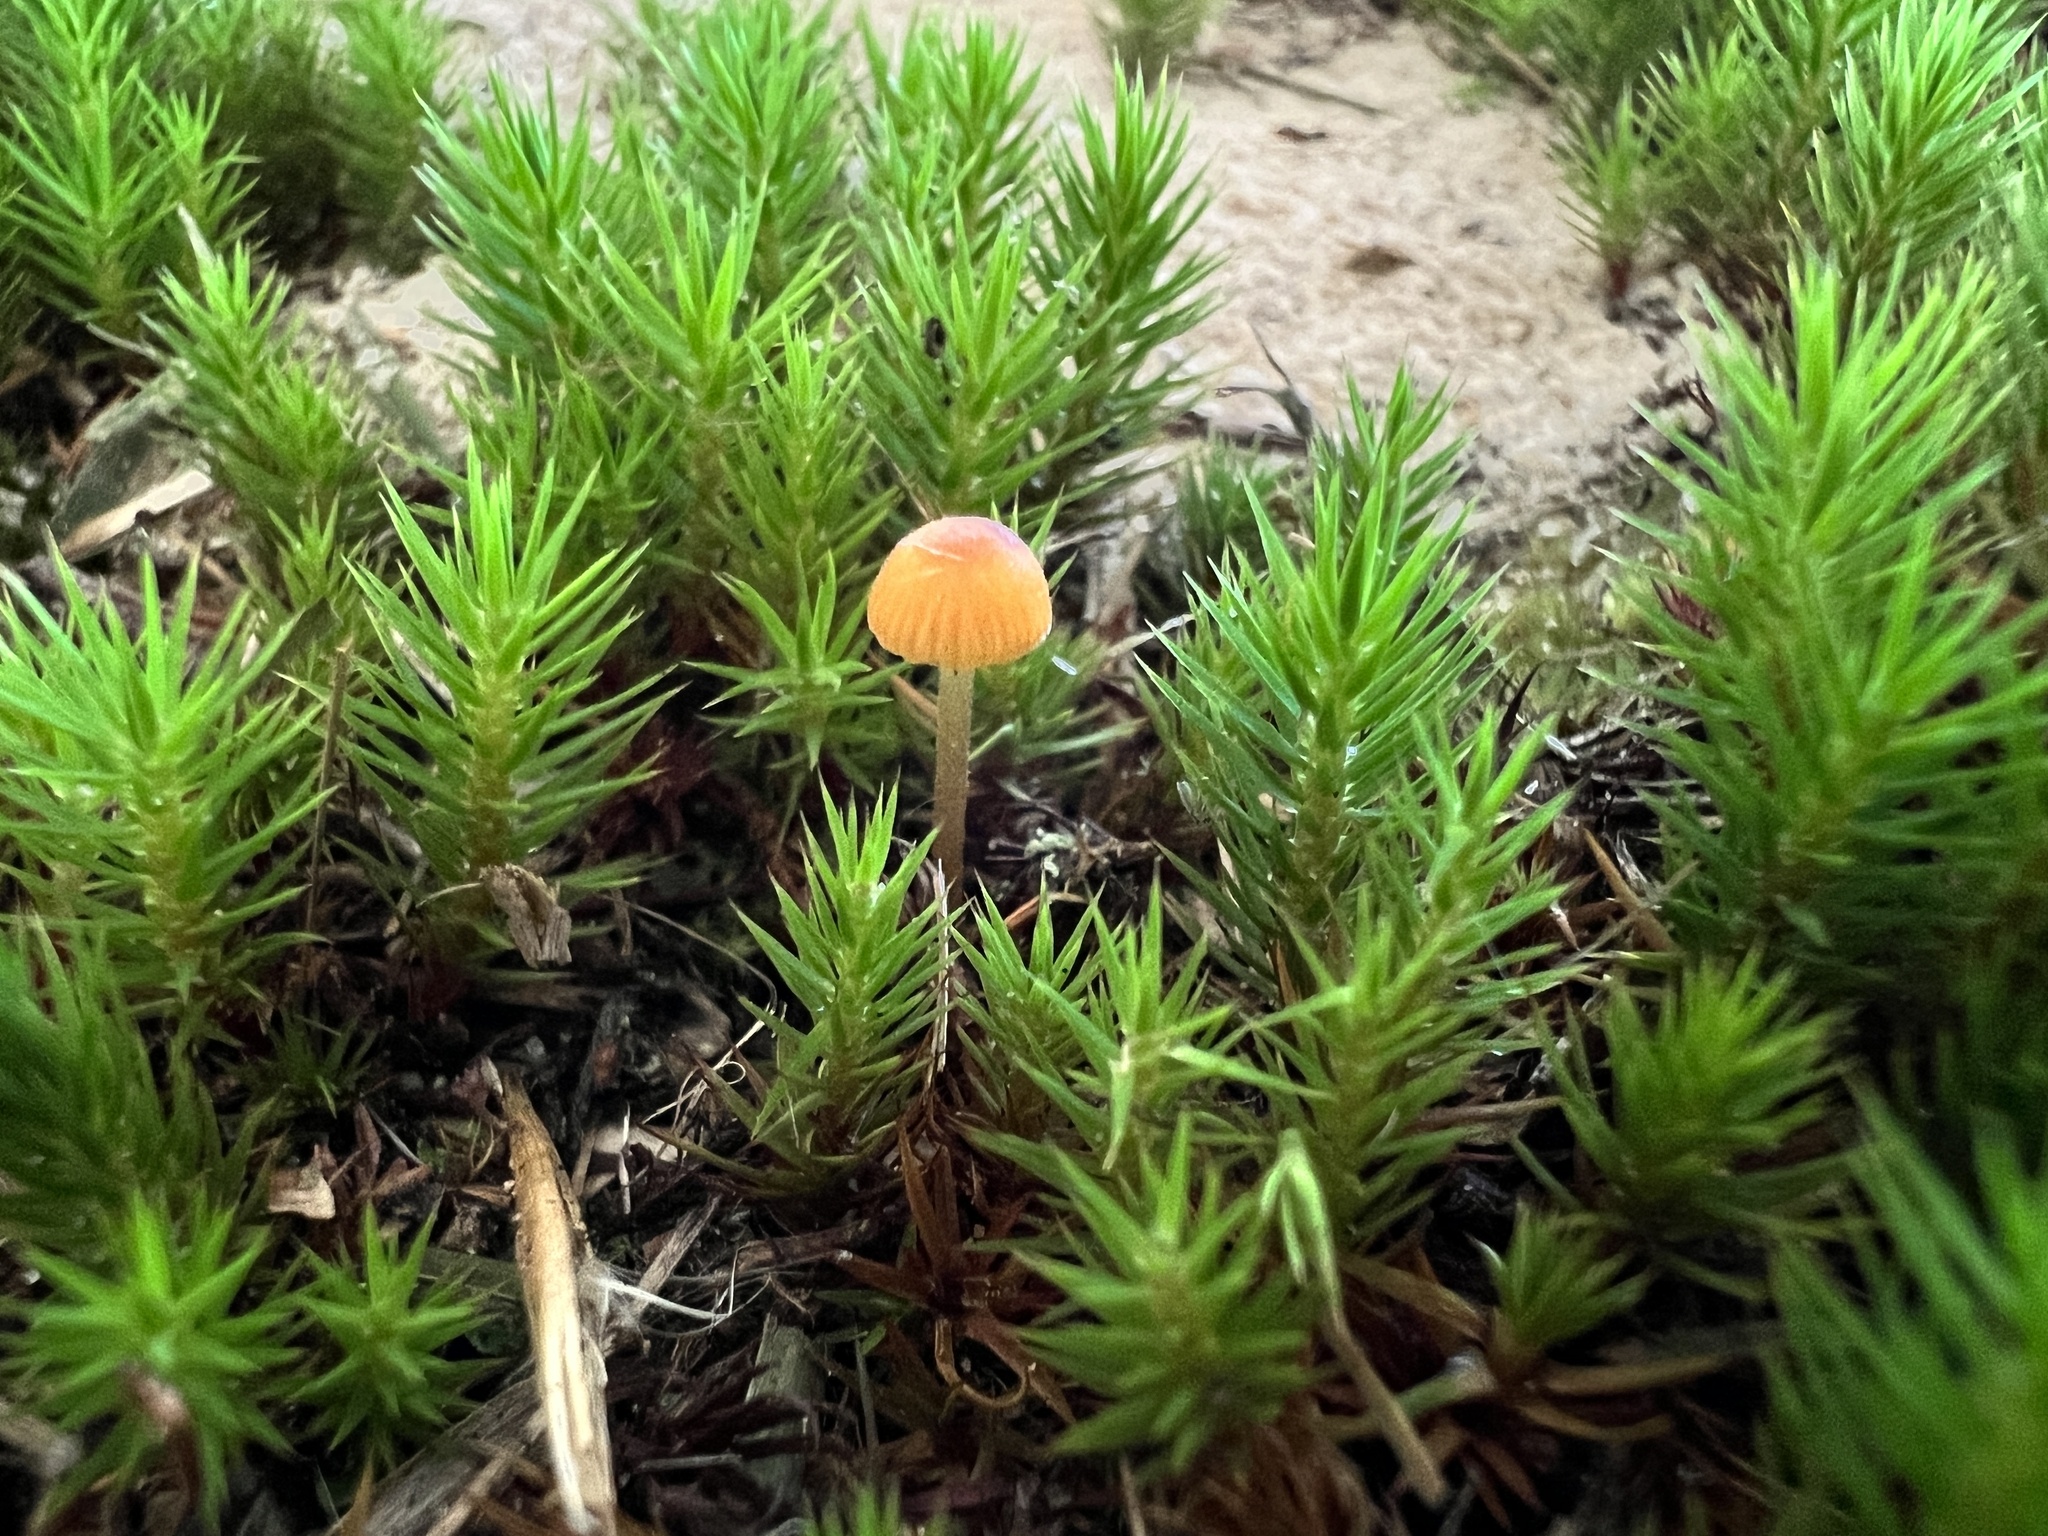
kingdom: Fungi
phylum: Basidiomycota
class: Agaricomycetes
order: Hymenochaetales
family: Rickenellaceae
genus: Rickenella
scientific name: Rickenella fibula
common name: Orange mosscap
